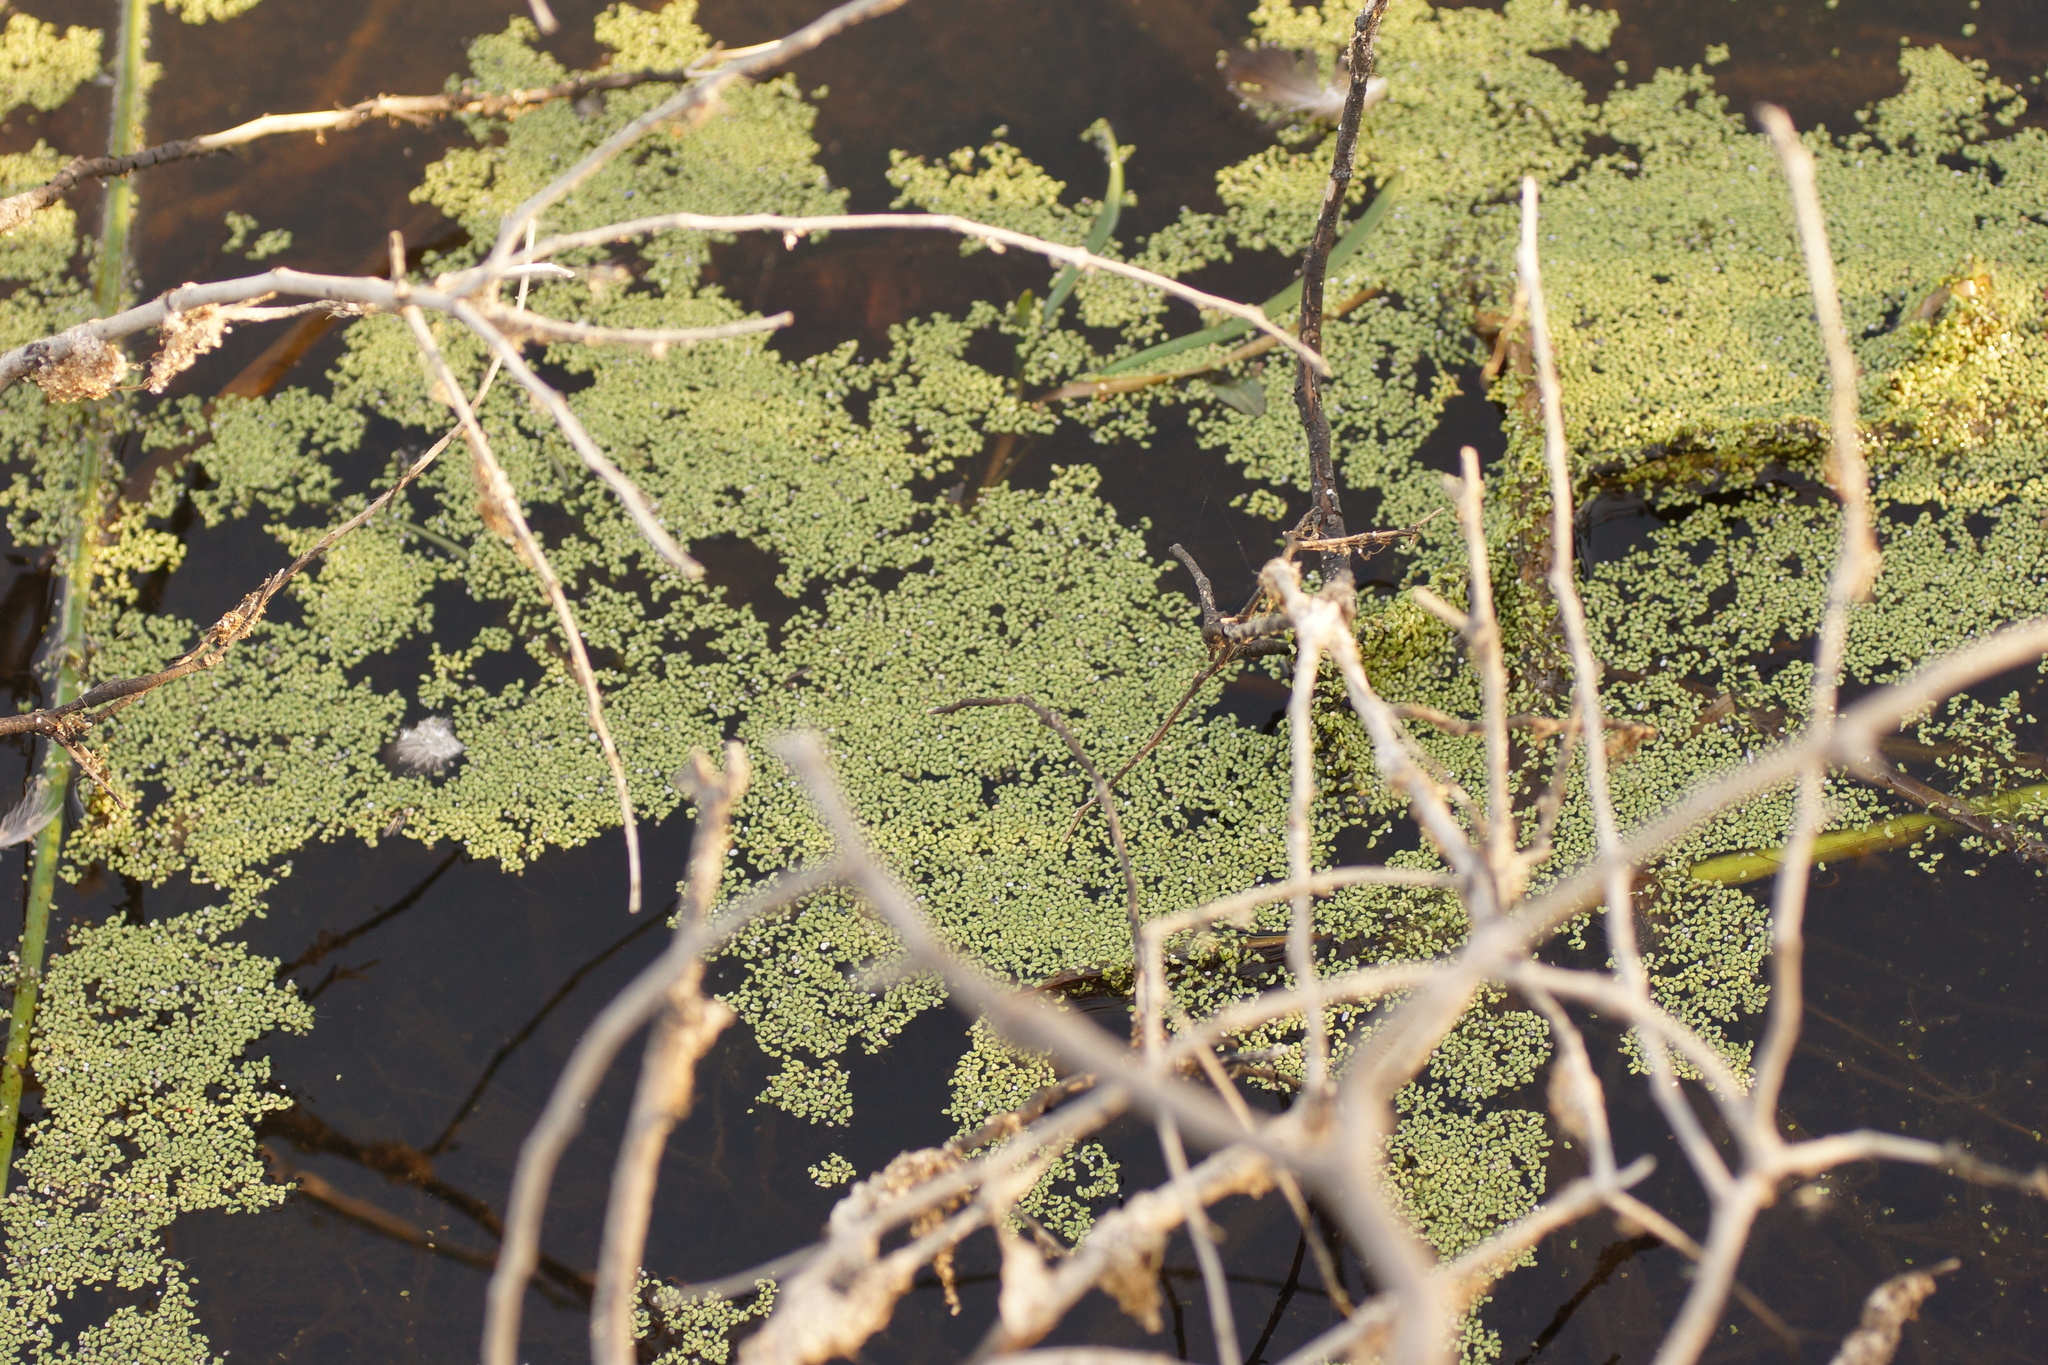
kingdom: Plantae
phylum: Tracheophyta
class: Liliopsida
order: Alismatales
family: Araceae
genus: Lemna
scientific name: Lemna minor
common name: Common duckweed
